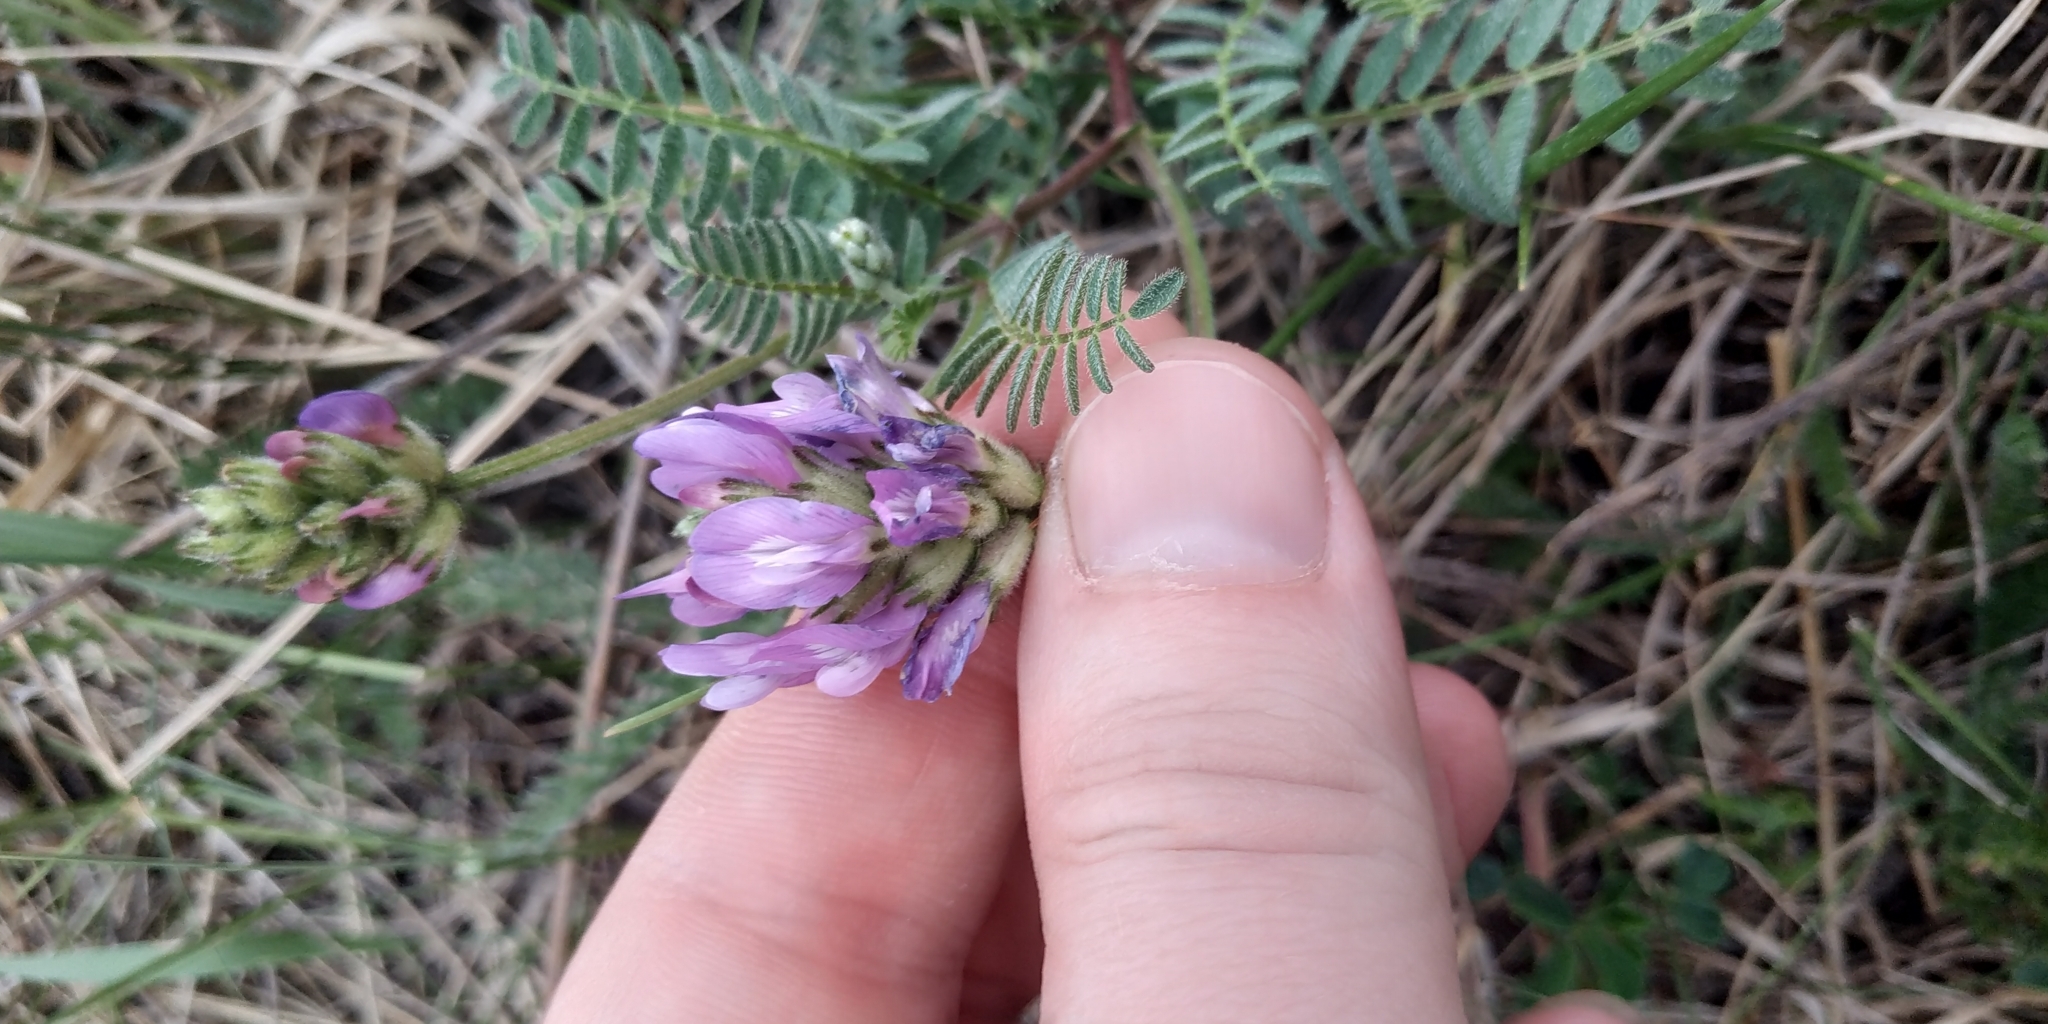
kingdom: Plantae
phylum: Tracheophyta
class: Magnoliopsida
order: Fabales
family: Fabaceae
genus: Astragalus
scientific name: Astragalus danicus
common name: Purple milk-vetch
